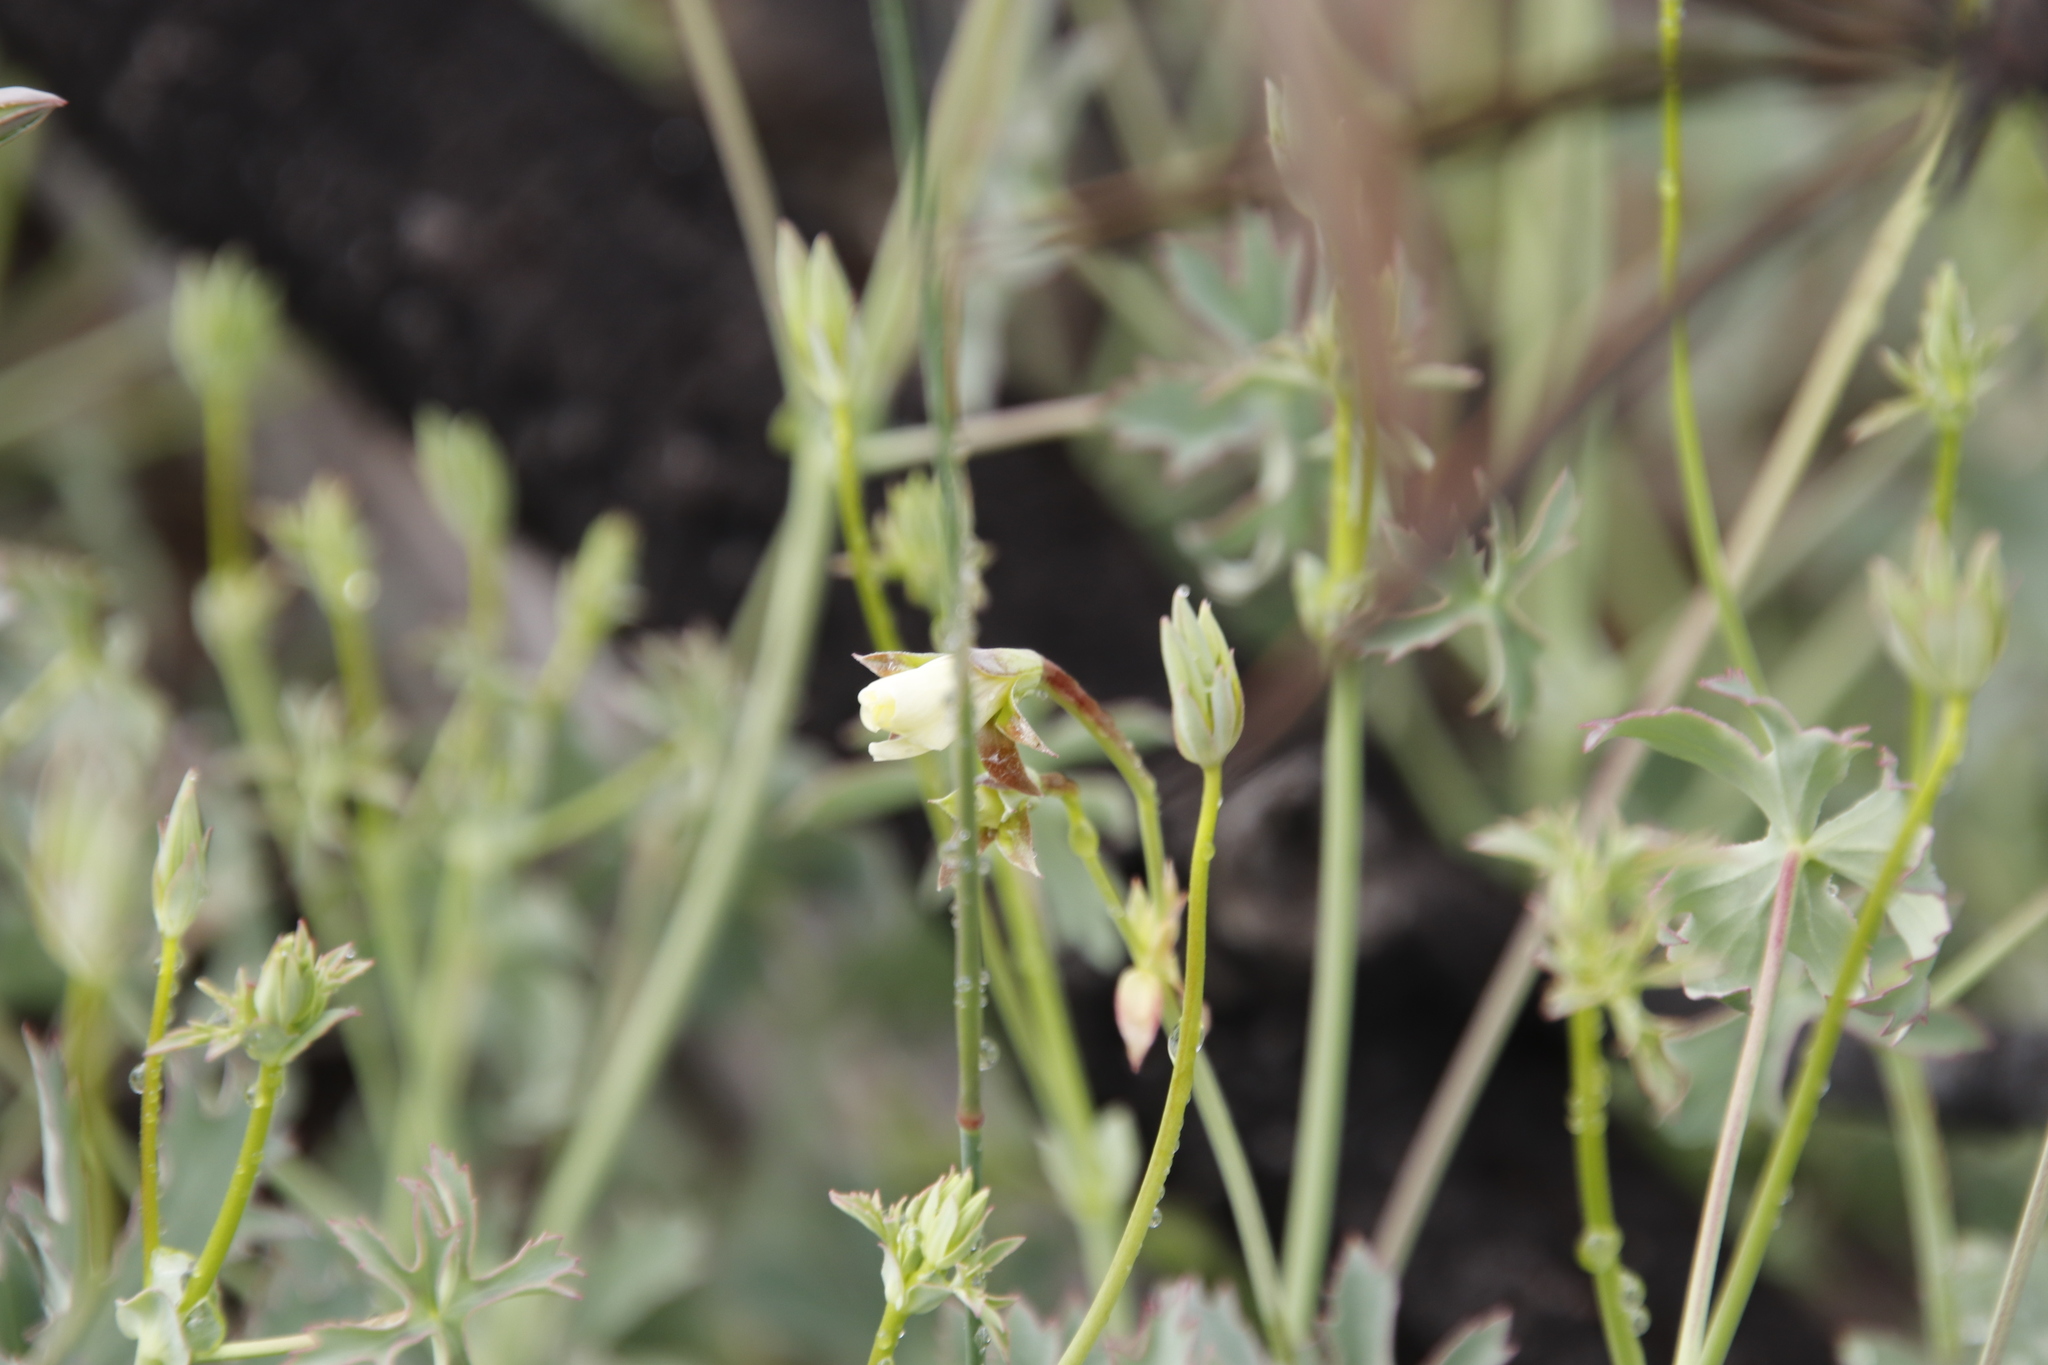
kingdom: Plantae
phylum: Tracheophyta
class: Magnoliopsida
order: Geraniales
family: Geraniaceae
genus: Pelargonium
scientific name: Pelargonium grandiflorum
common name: Large-flower pelargonium
